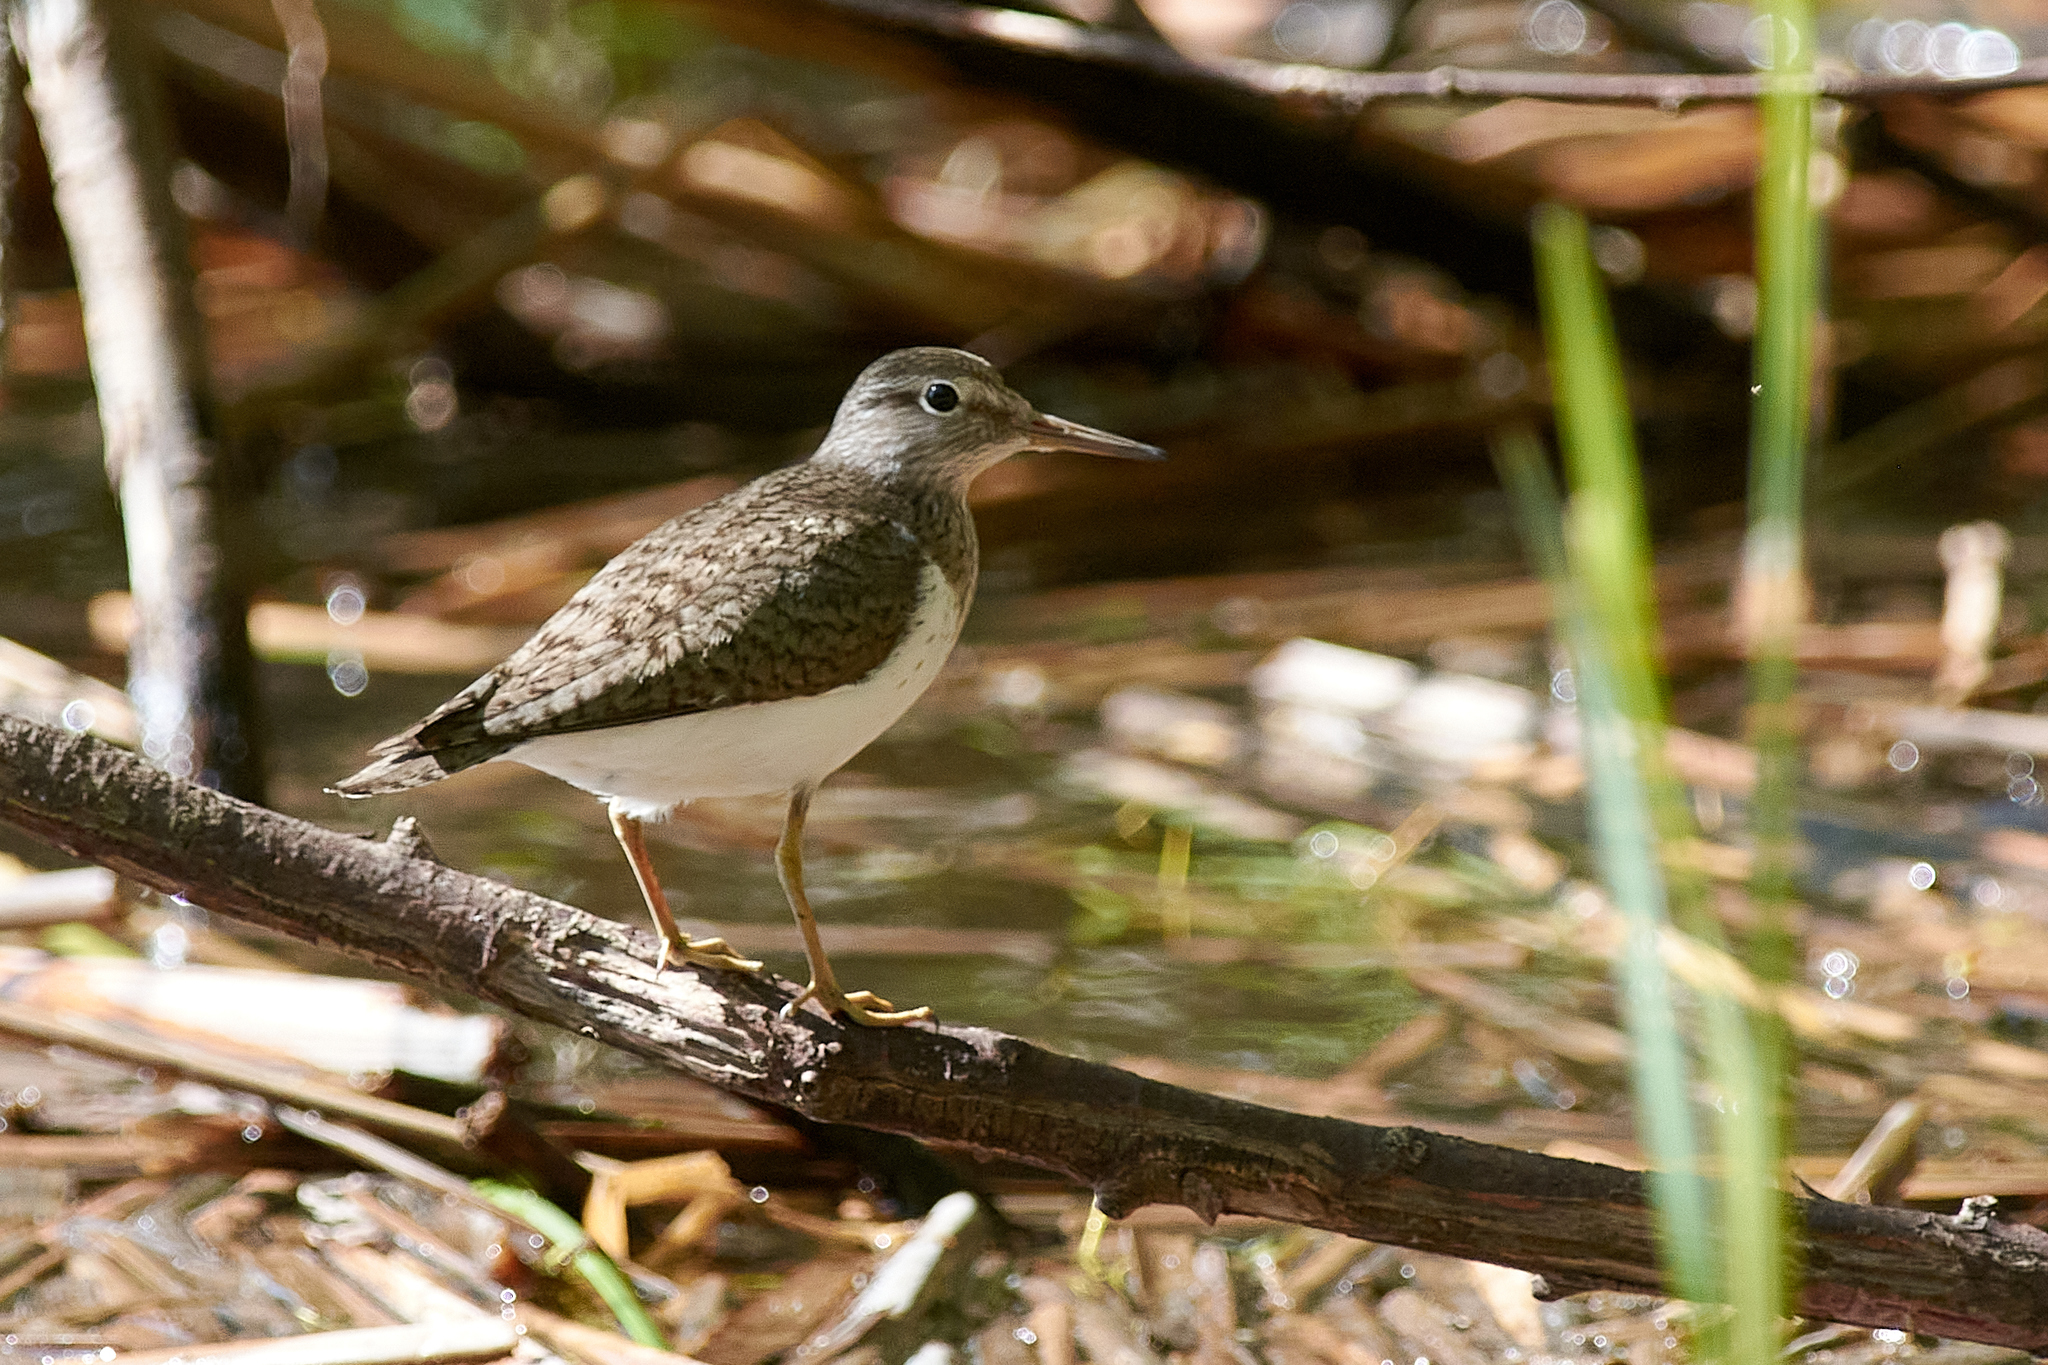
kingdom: Animalia
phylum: Chordata
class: Aves
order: Charadriiformes
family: Scolopacidae
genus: Actitis
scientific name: Actitis hypoleucos
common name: Common sandpiper
